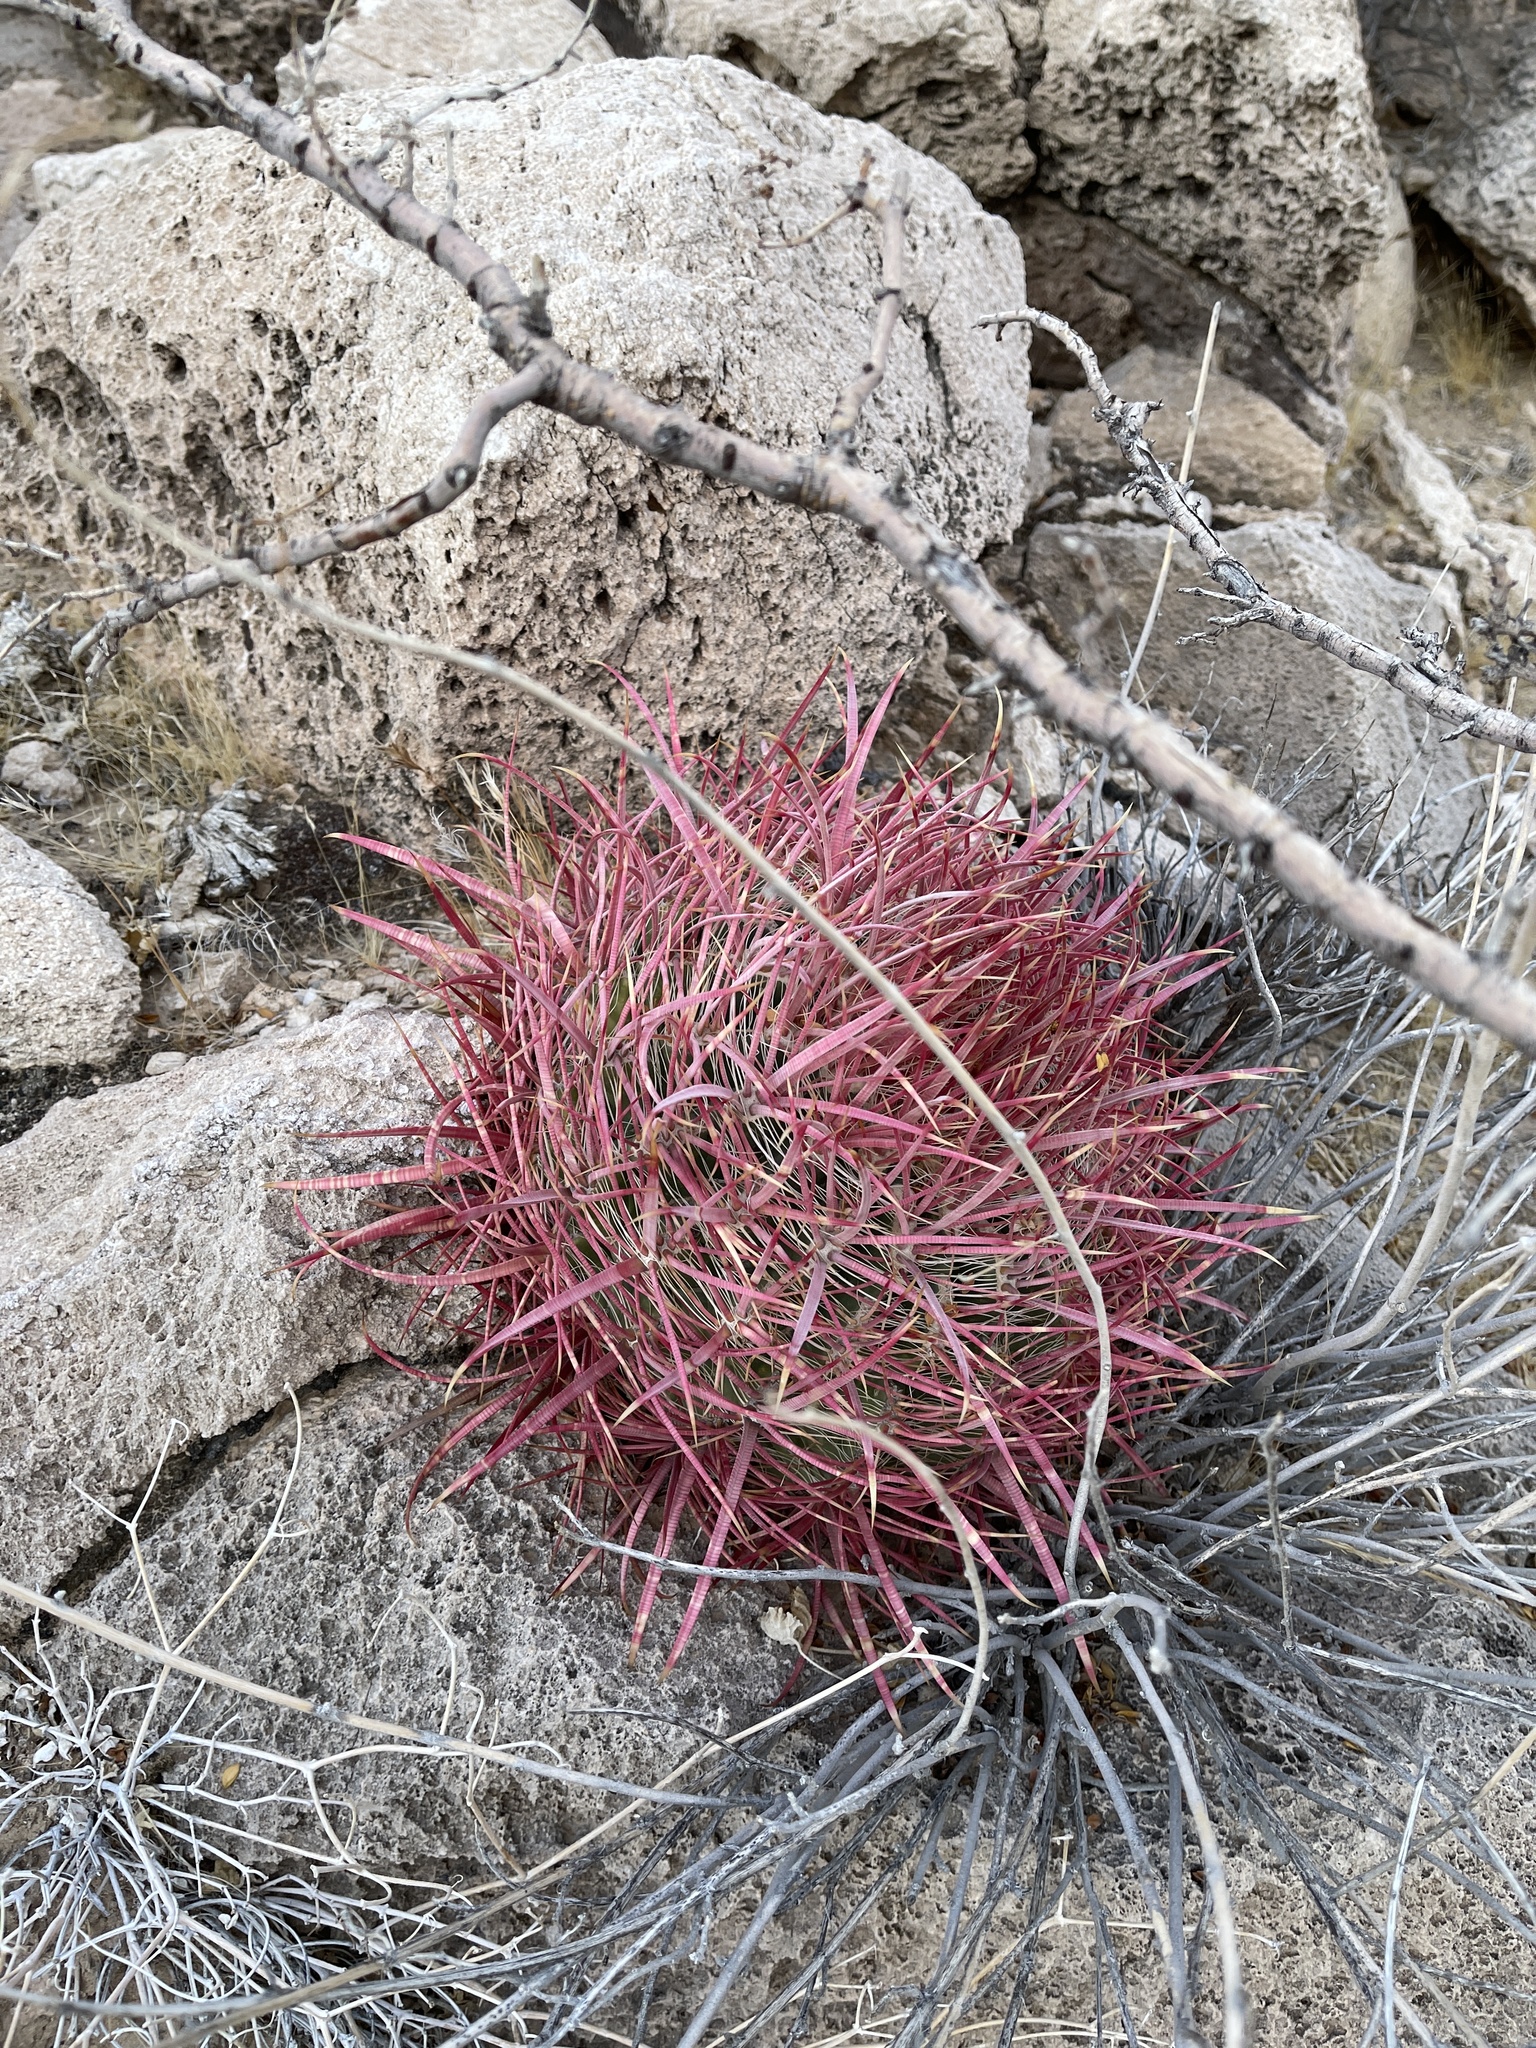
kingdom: Plantae
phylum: Tracheophyta
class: Magnoliopsida
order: Caryophyllales
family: Cactaceae
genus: Ferocactus
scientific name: Ferocactus cylindraceus
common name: California barrel cactus
